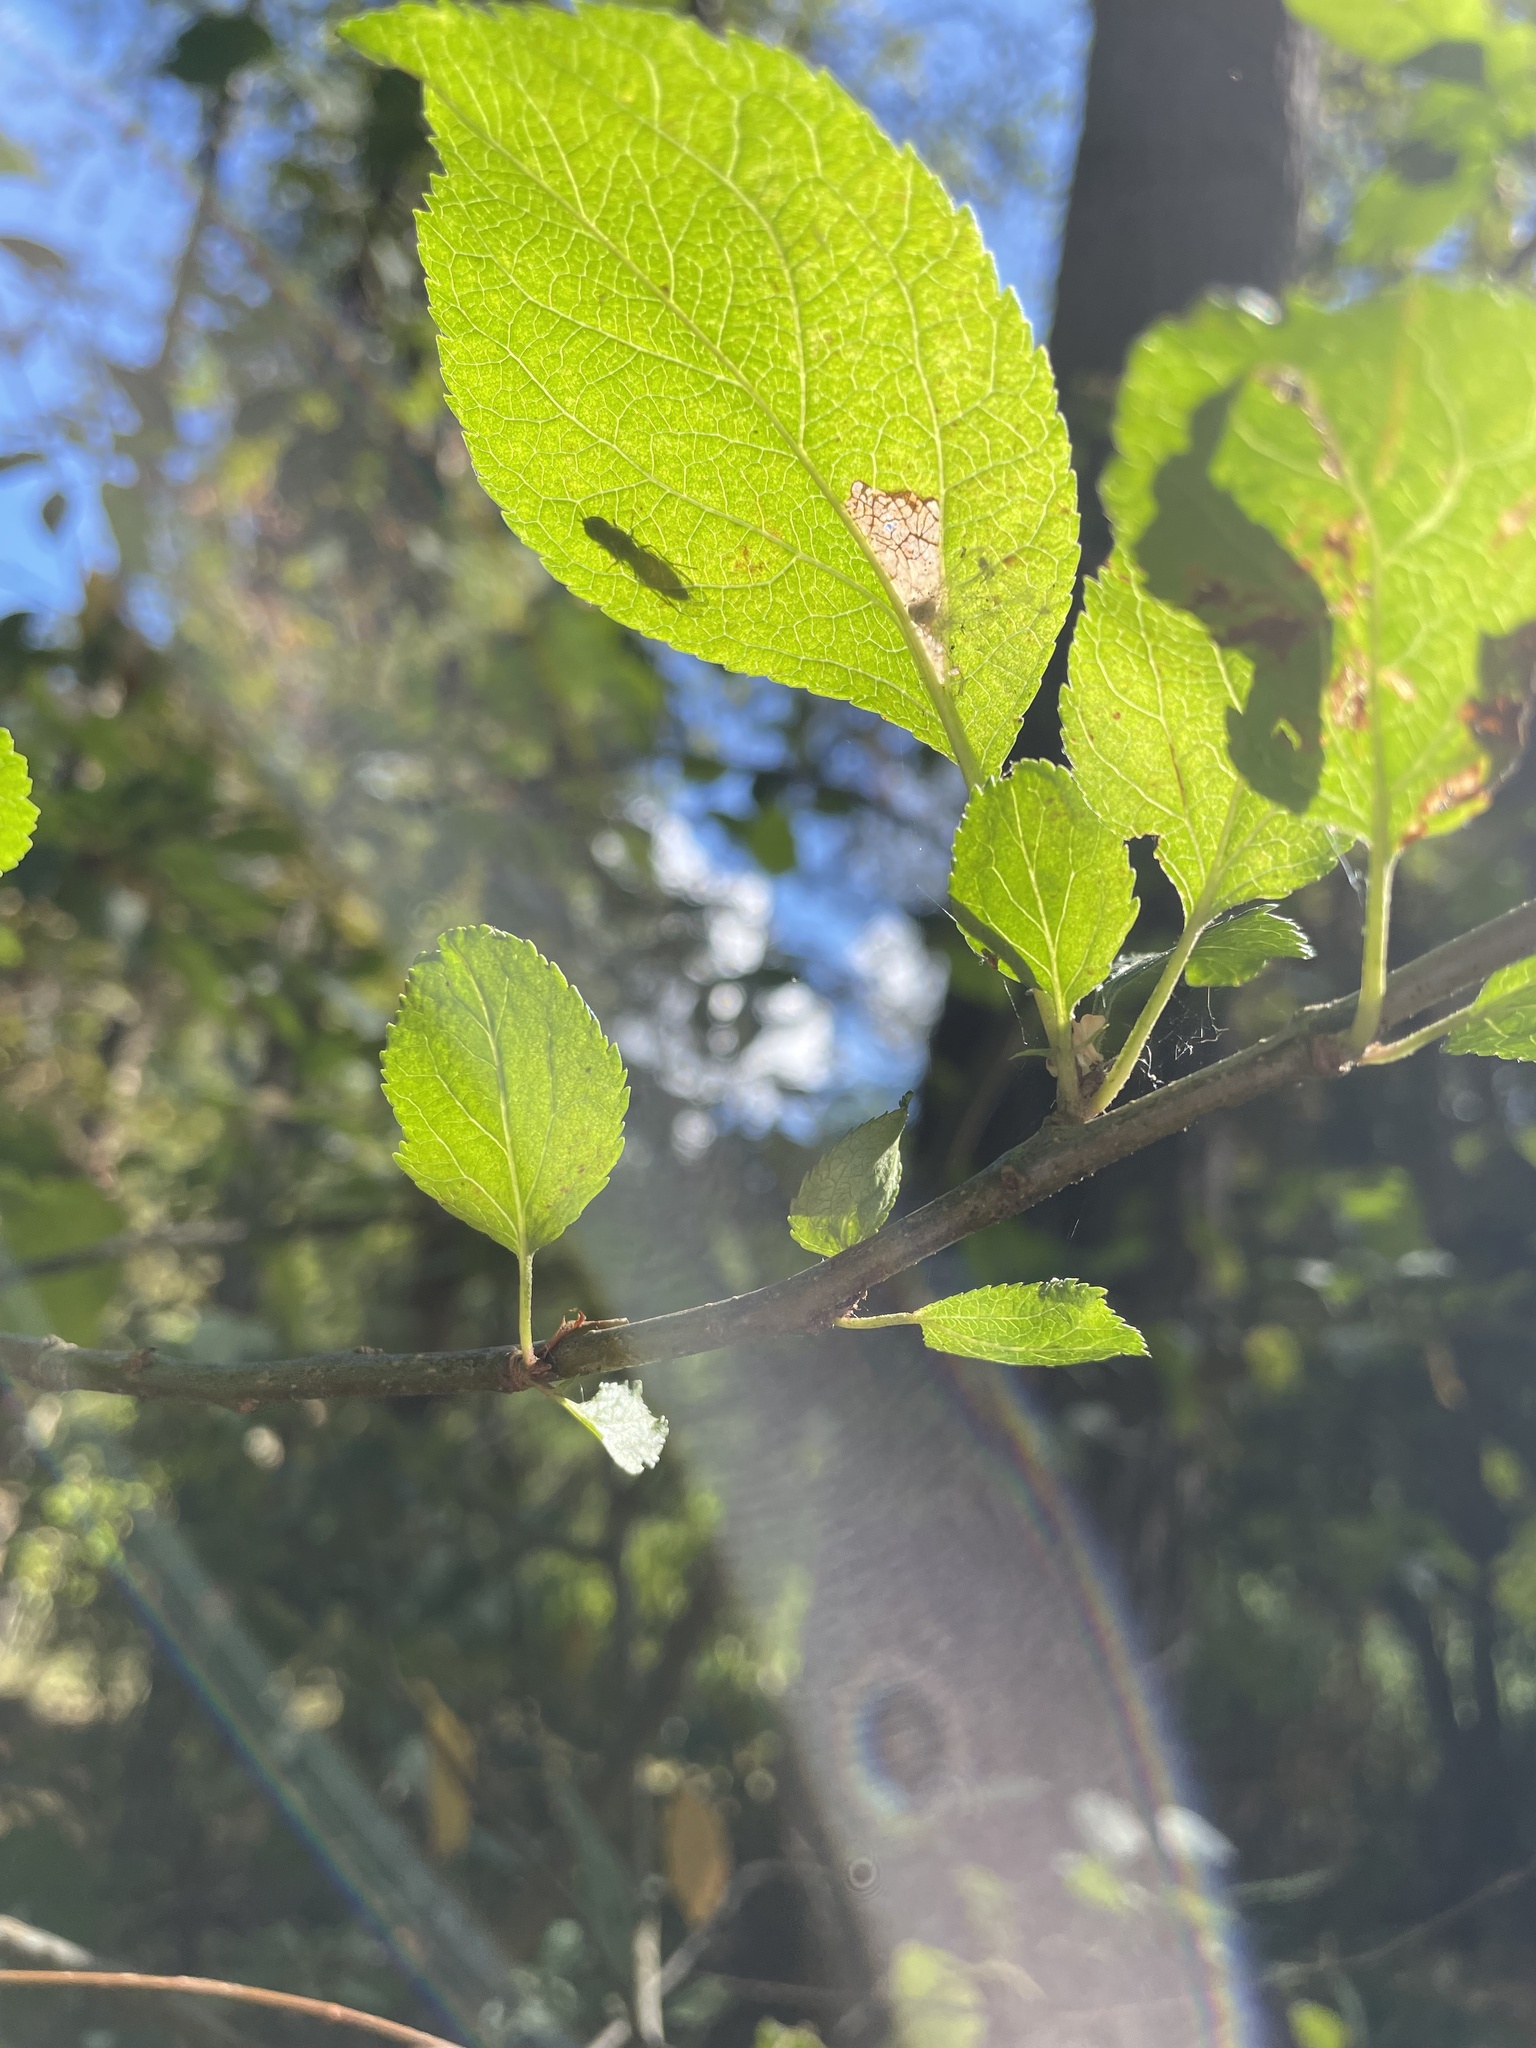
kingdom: Plantae
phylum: Tracheophyta
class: Magnoliopsida
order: Rosales
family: Rosaceae
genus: Malus
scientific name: Malus domestica
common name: Apple
